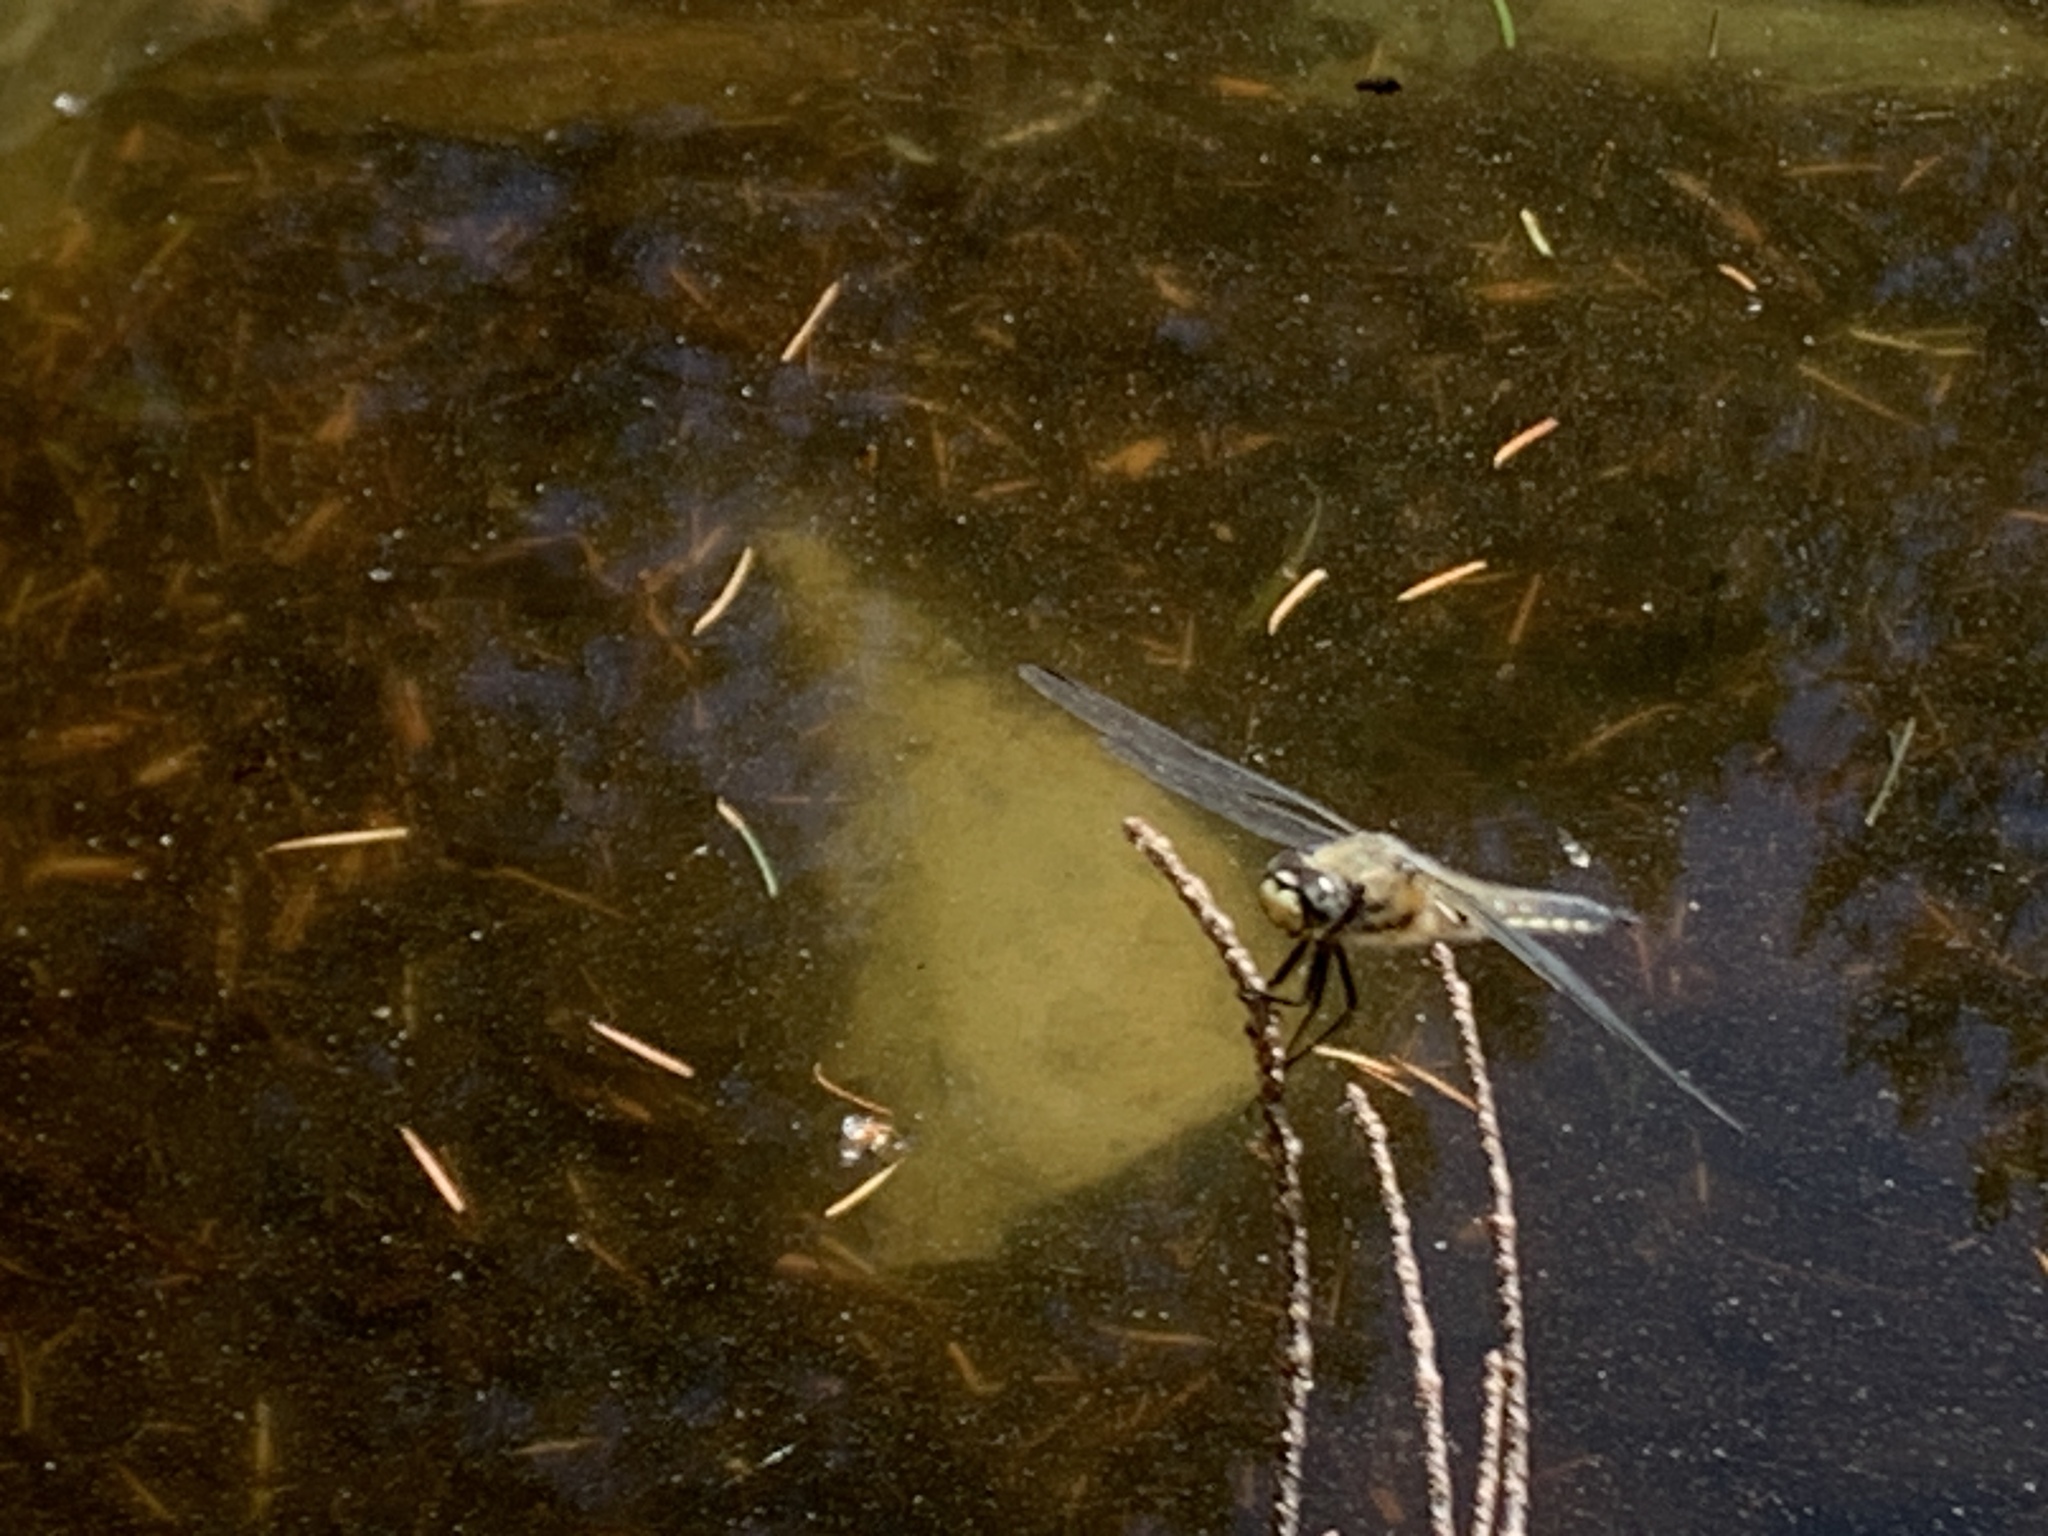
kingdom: Animalia
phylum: Arthropoda
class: Insecta
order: Odonata
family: Libellulidae
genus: Libellula
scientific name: Libellula quadrimaculata
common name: Four-spotted chaser
